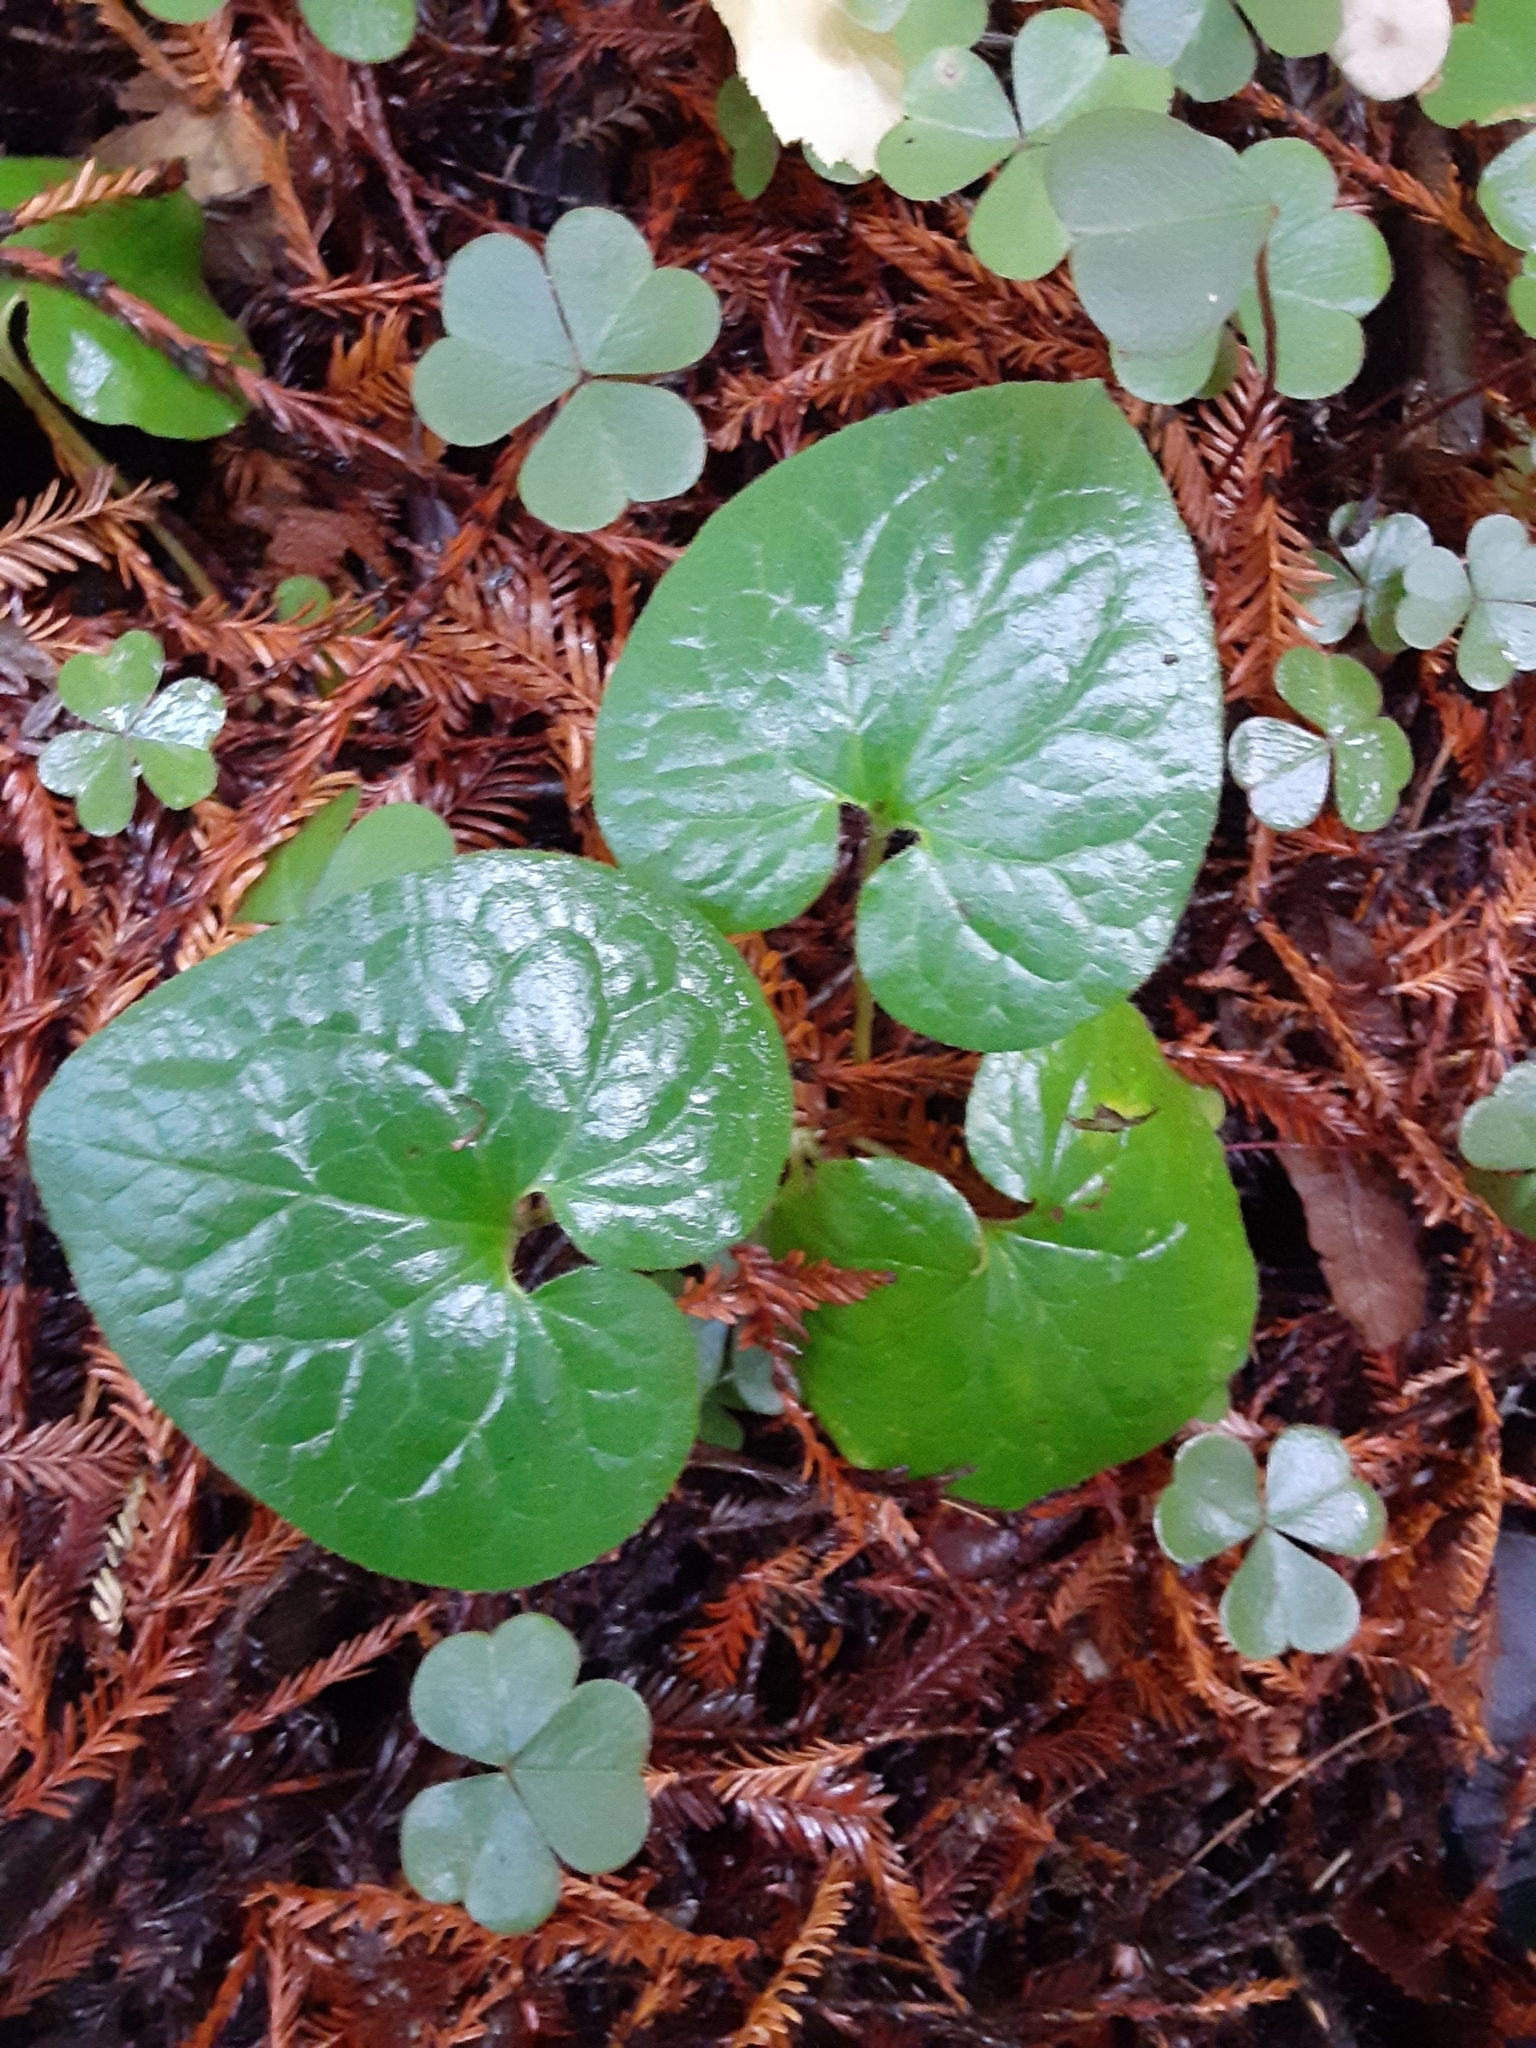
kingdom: Plantae
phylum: Tracheophyta
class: Magnoliopsida
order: Piperales
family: Aristolochiaceae
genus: Asarum
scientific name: Asarum caudatum
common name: Wild ginger
